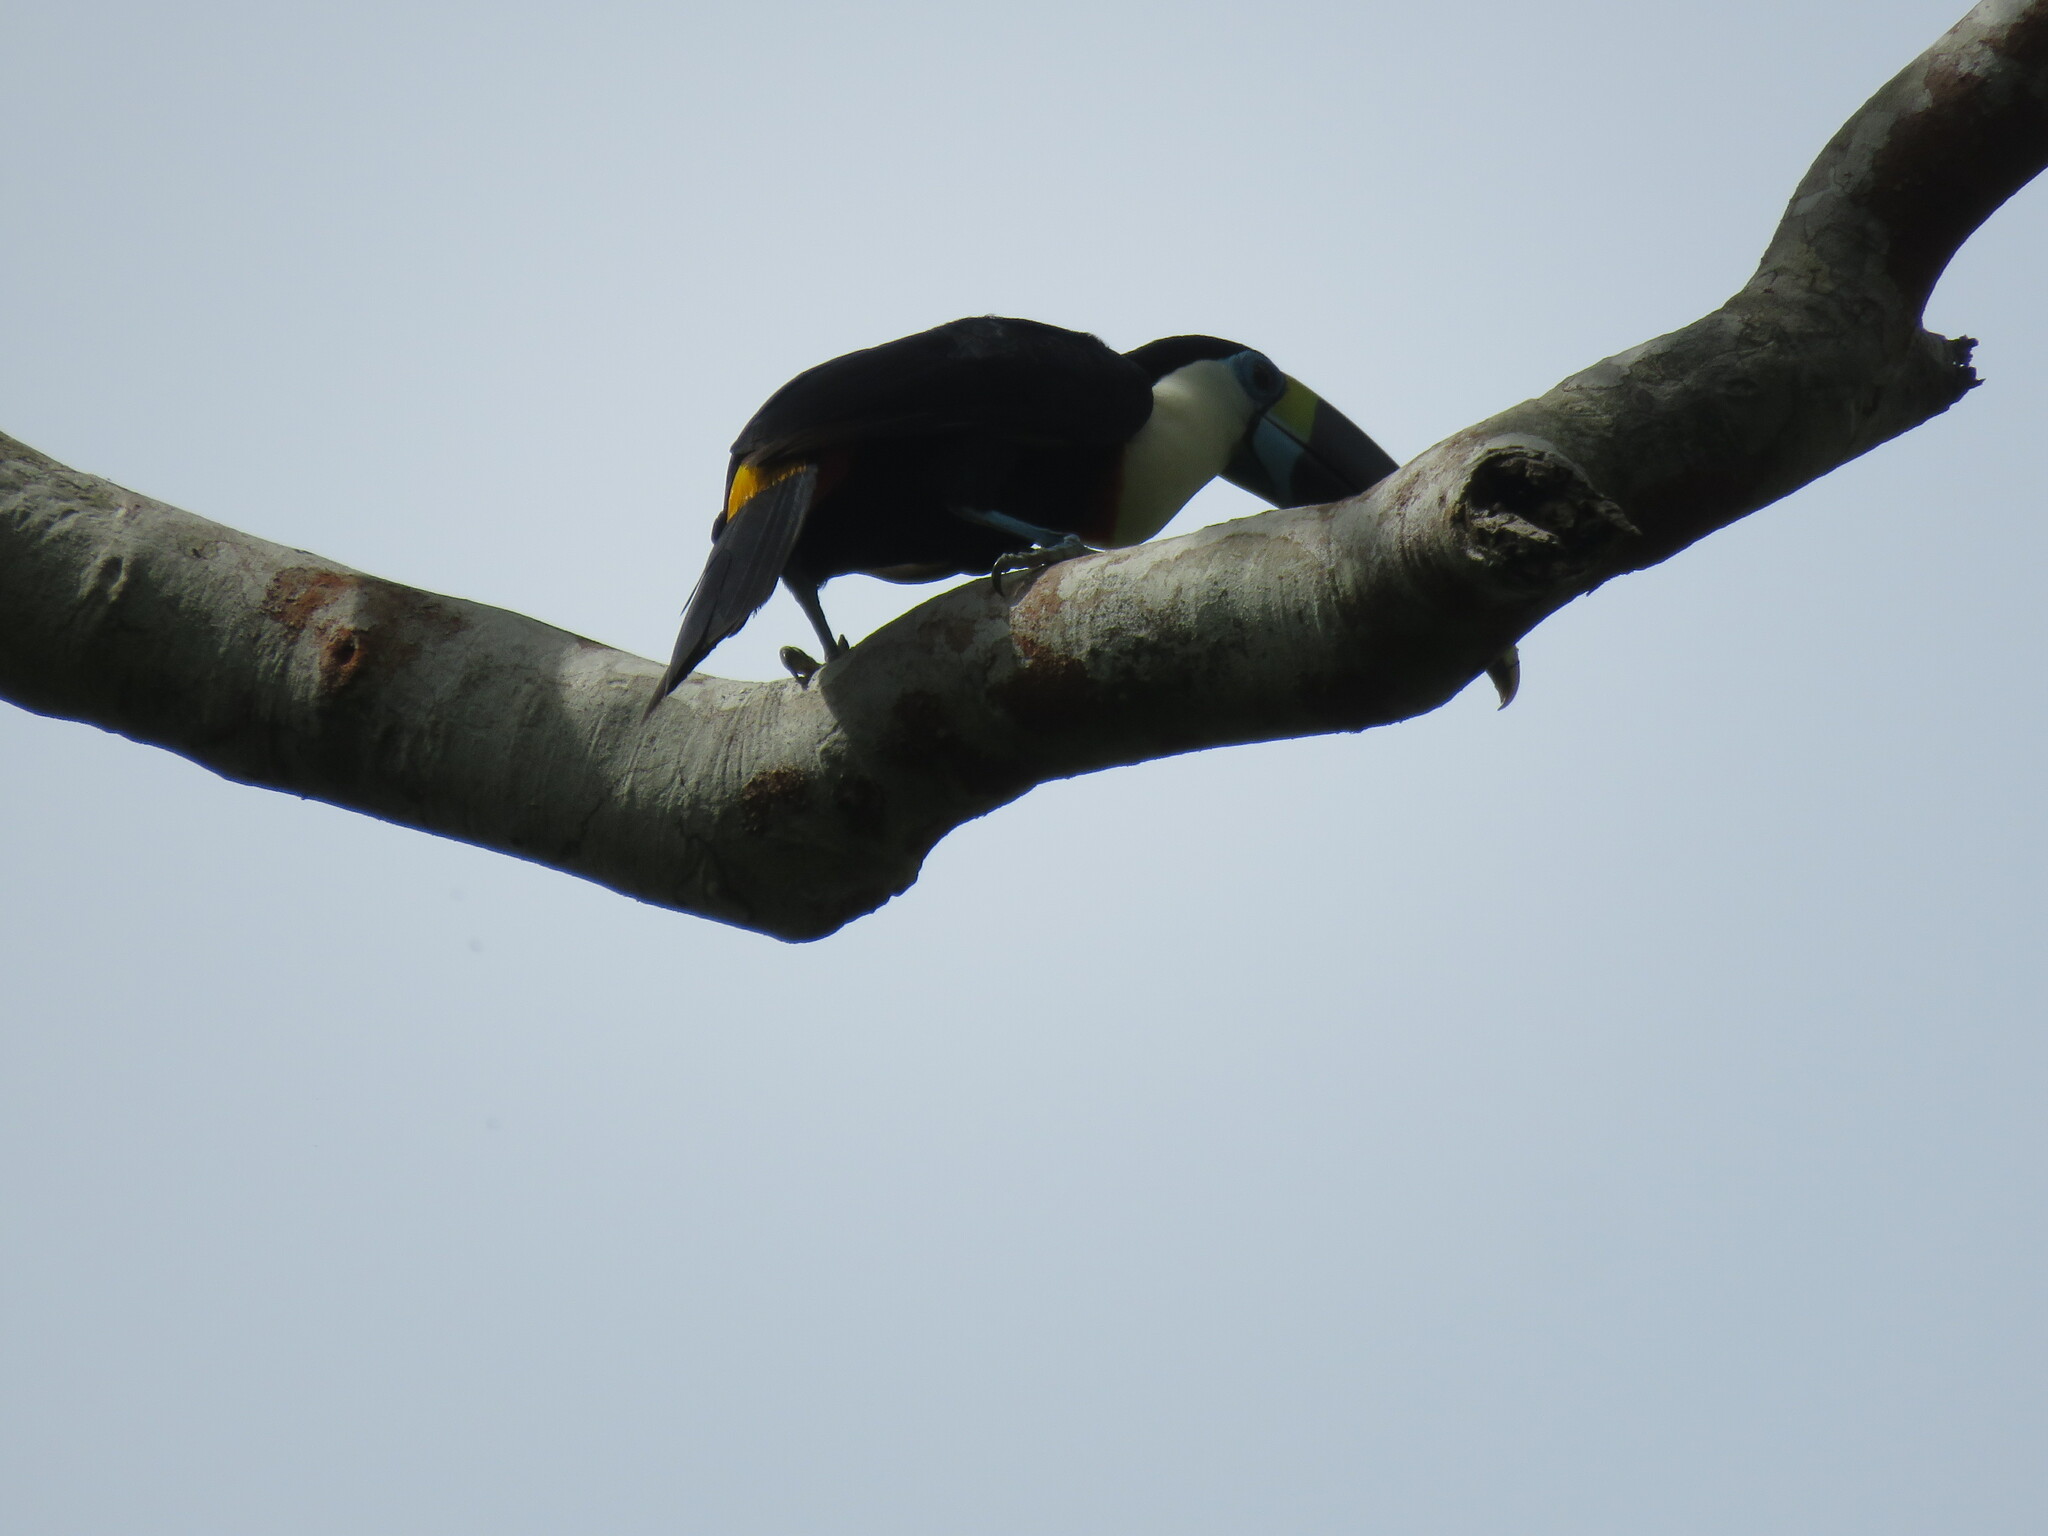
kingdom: Animalia
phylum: Chordata
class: Aves
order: Piciformes
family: Ramphastidae
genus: Ramphastos
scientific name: Ramphastos vitellinus
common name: Channel-billed toucan
